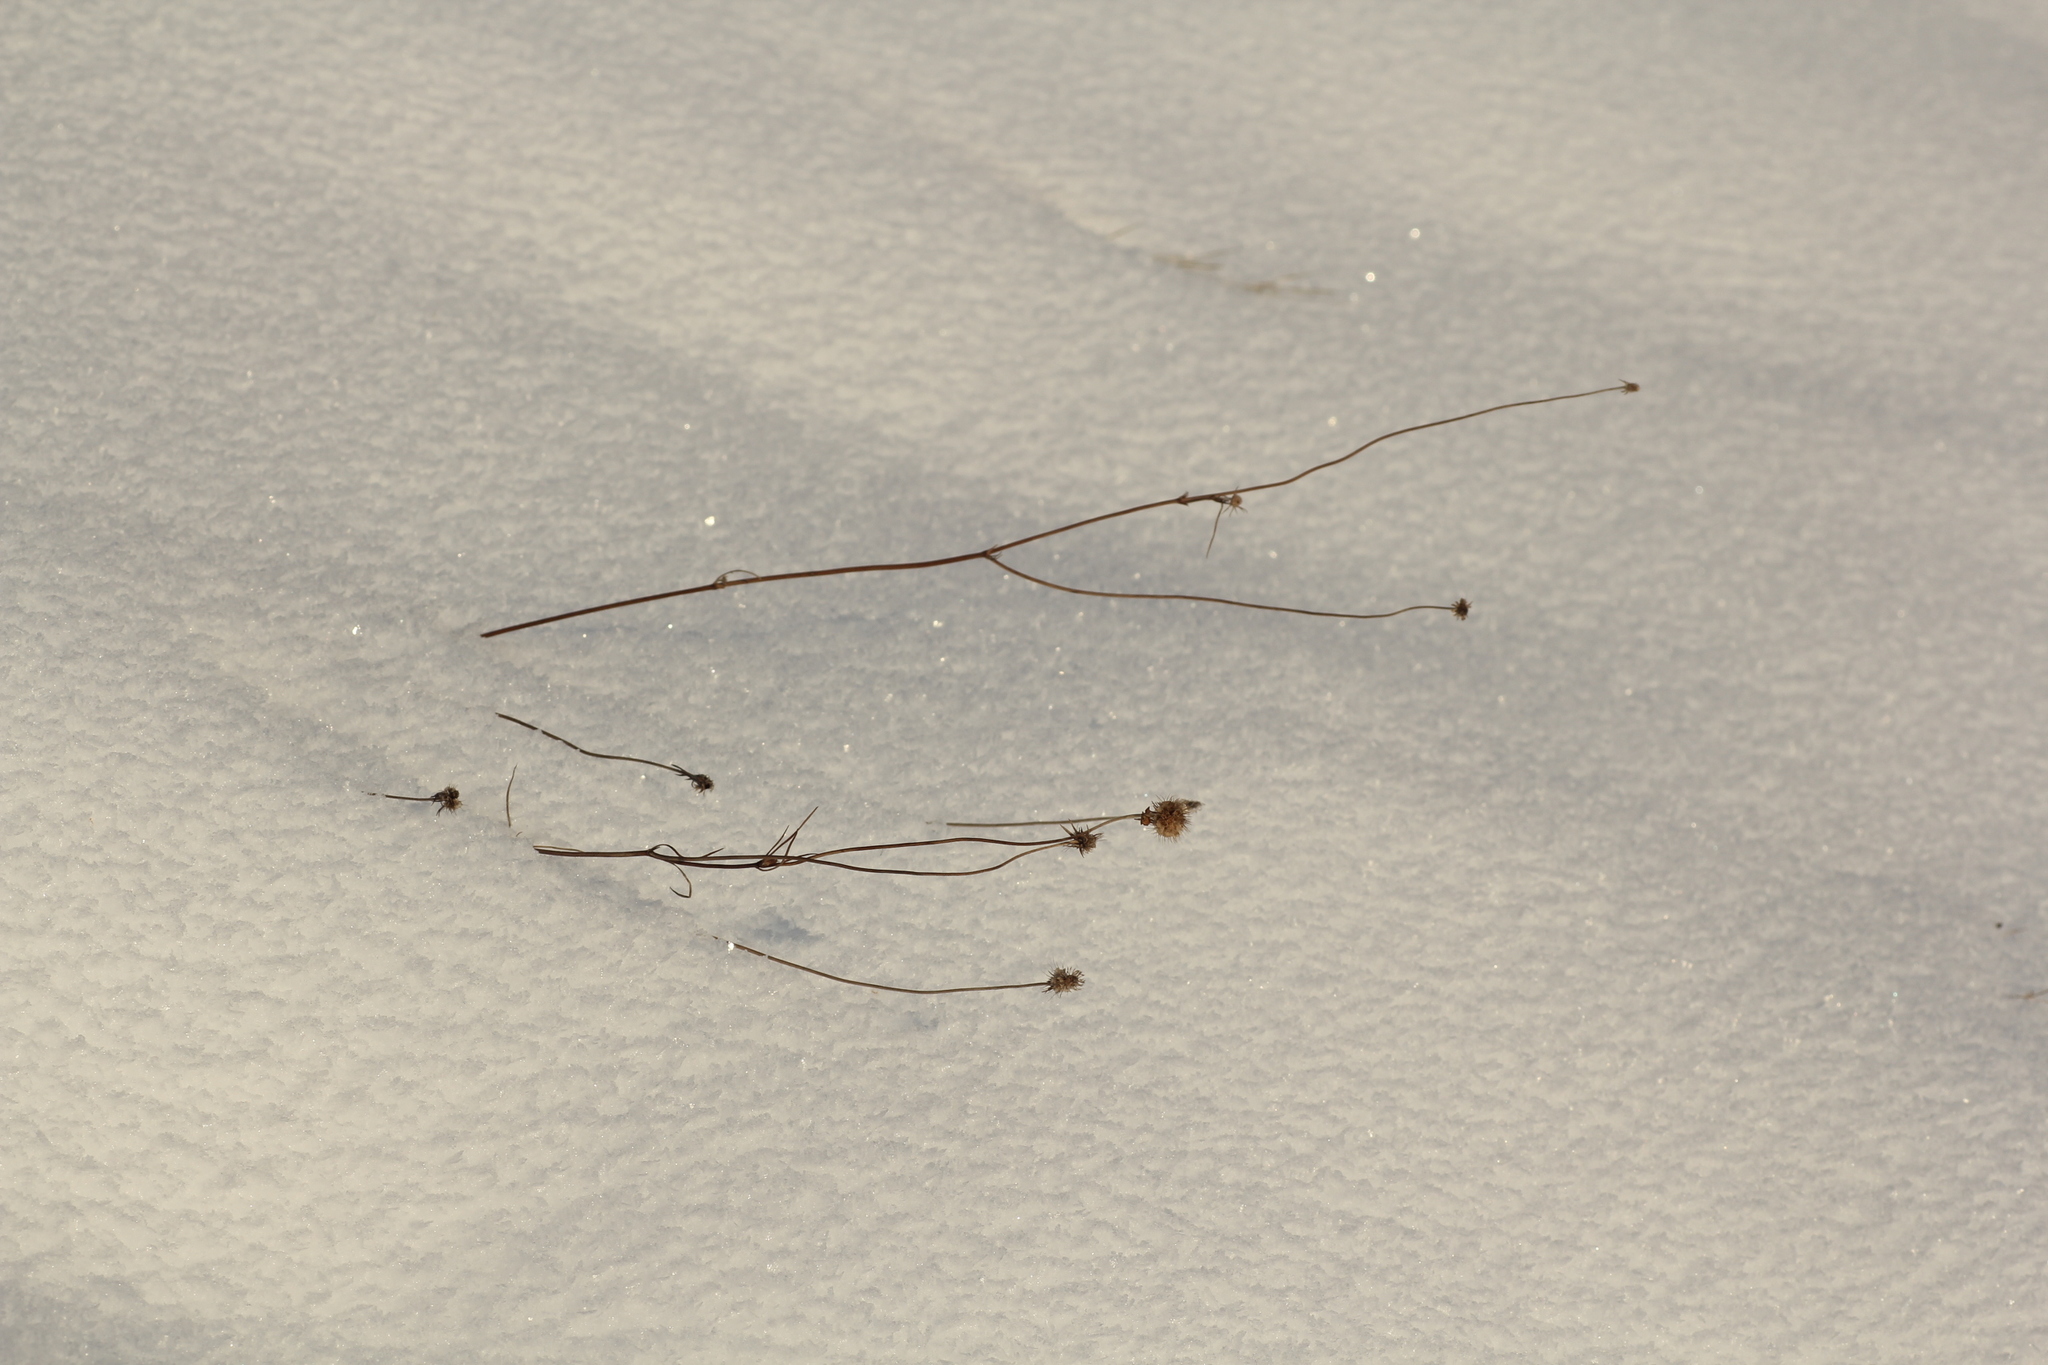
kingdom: Plantae
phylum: Tracheophyta
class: Magnoliopsida
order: Dipsacales
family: Caprifoliaceae
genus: Scabiosa
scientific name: Scabiosa ochroleuca
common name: Cream pincushions
